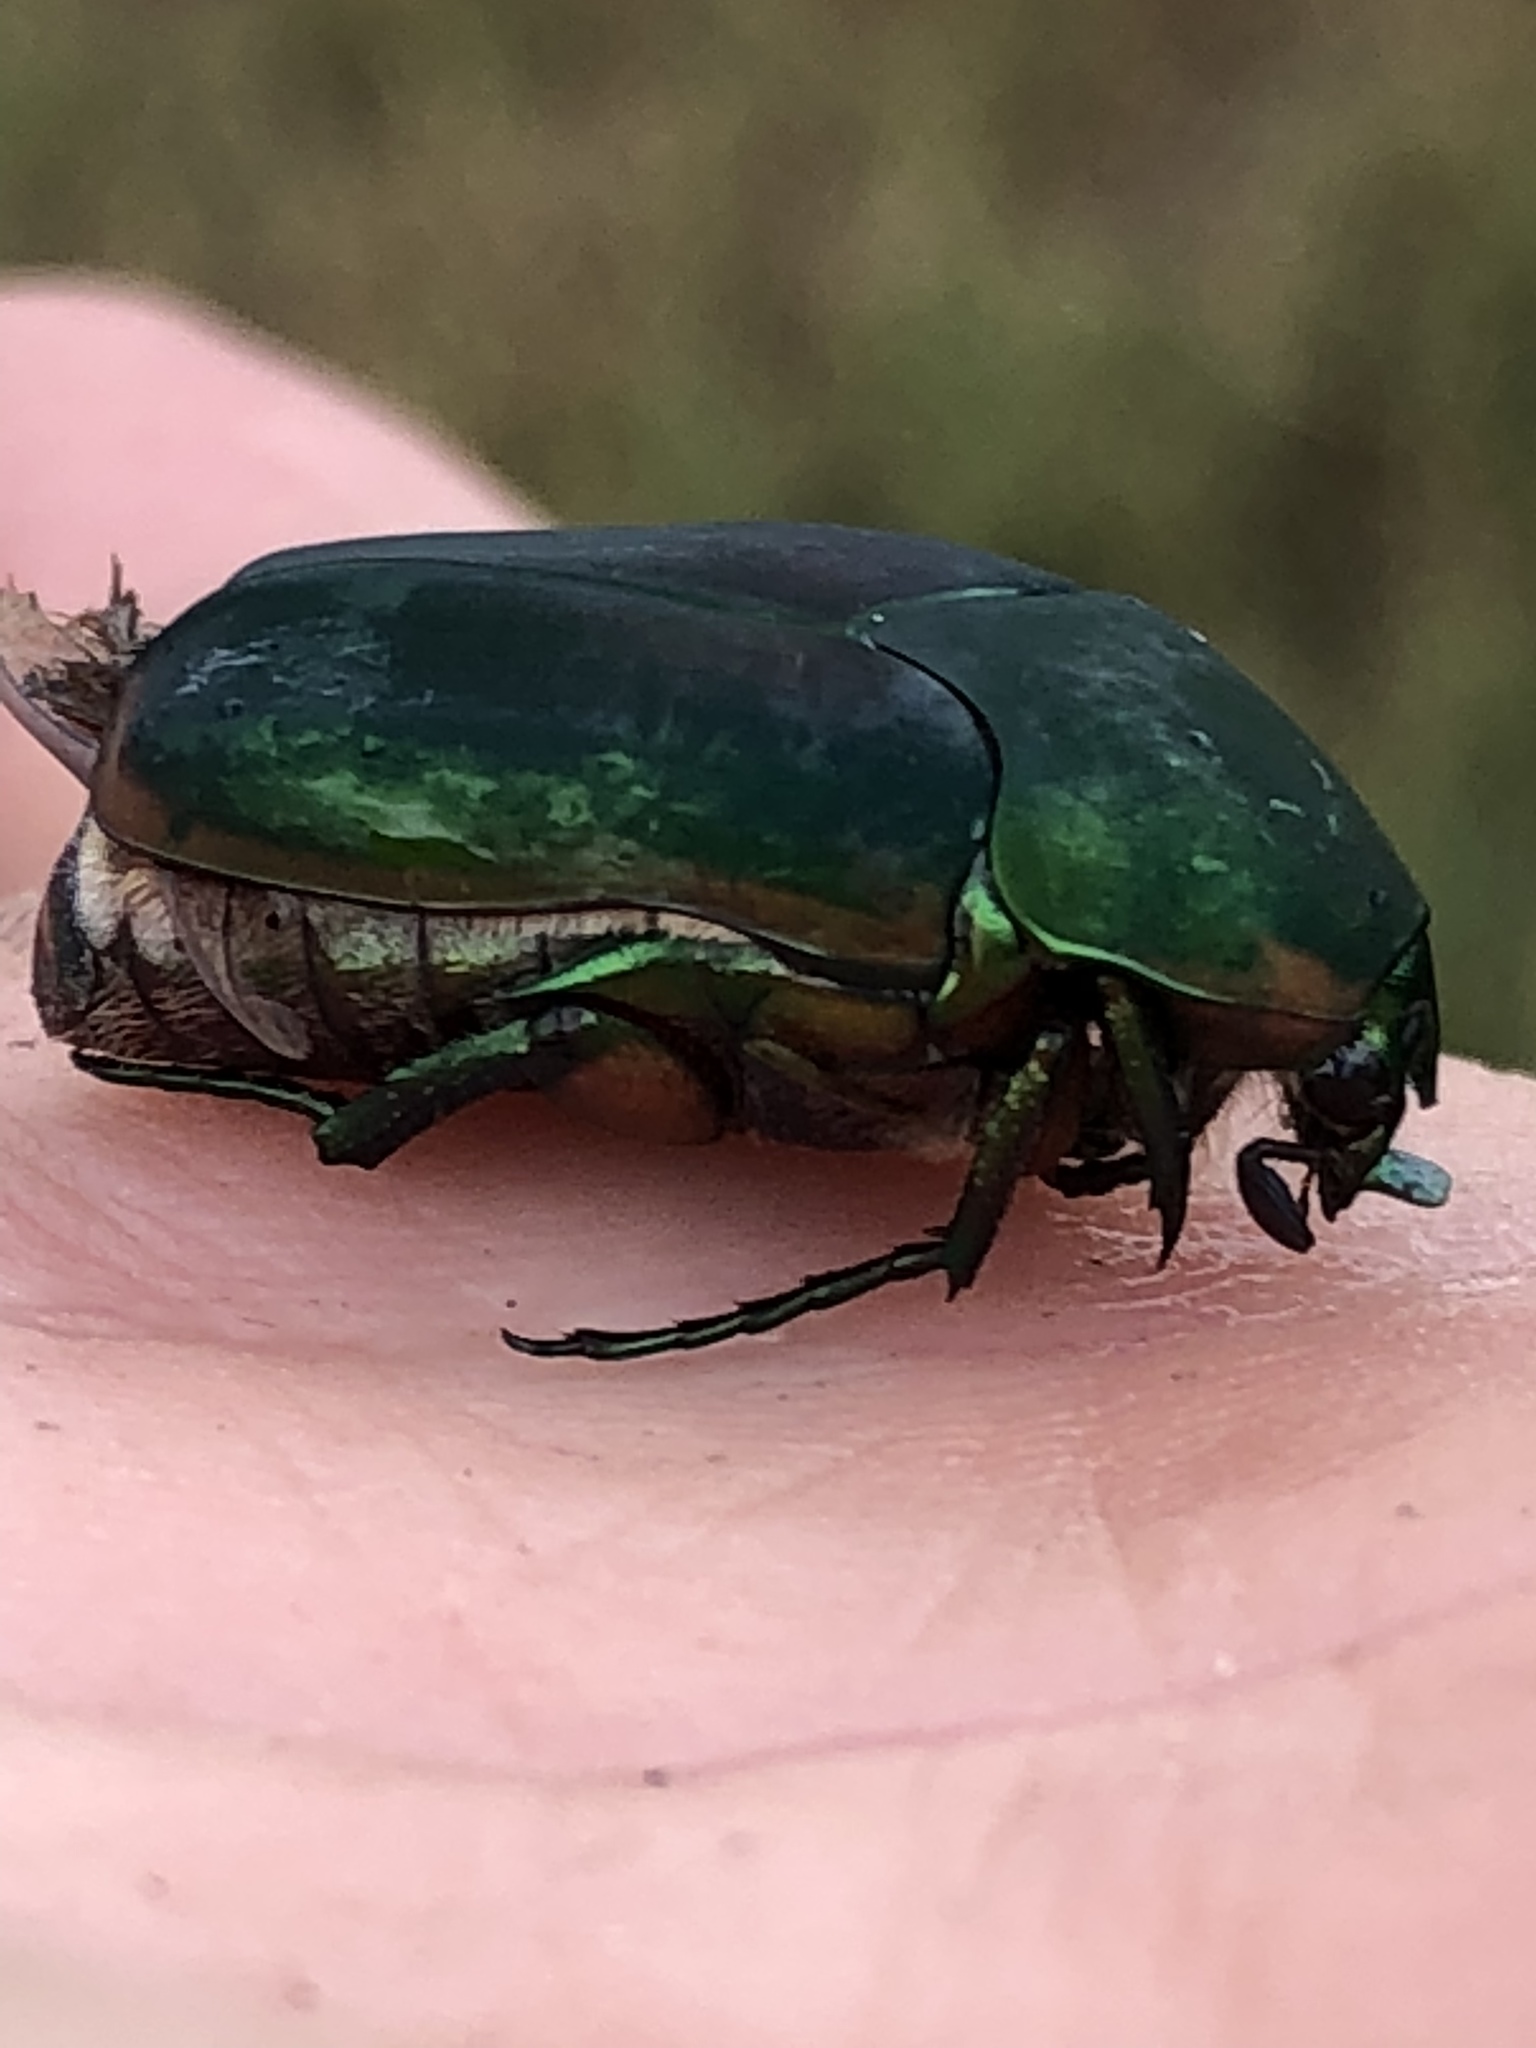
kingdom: Animalia
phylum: Arthropoda
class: Insecta
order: Coleoptera
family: Scarabaeidae
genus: Cotinis
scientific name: Cotinis nitida
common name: Common green june beetle
